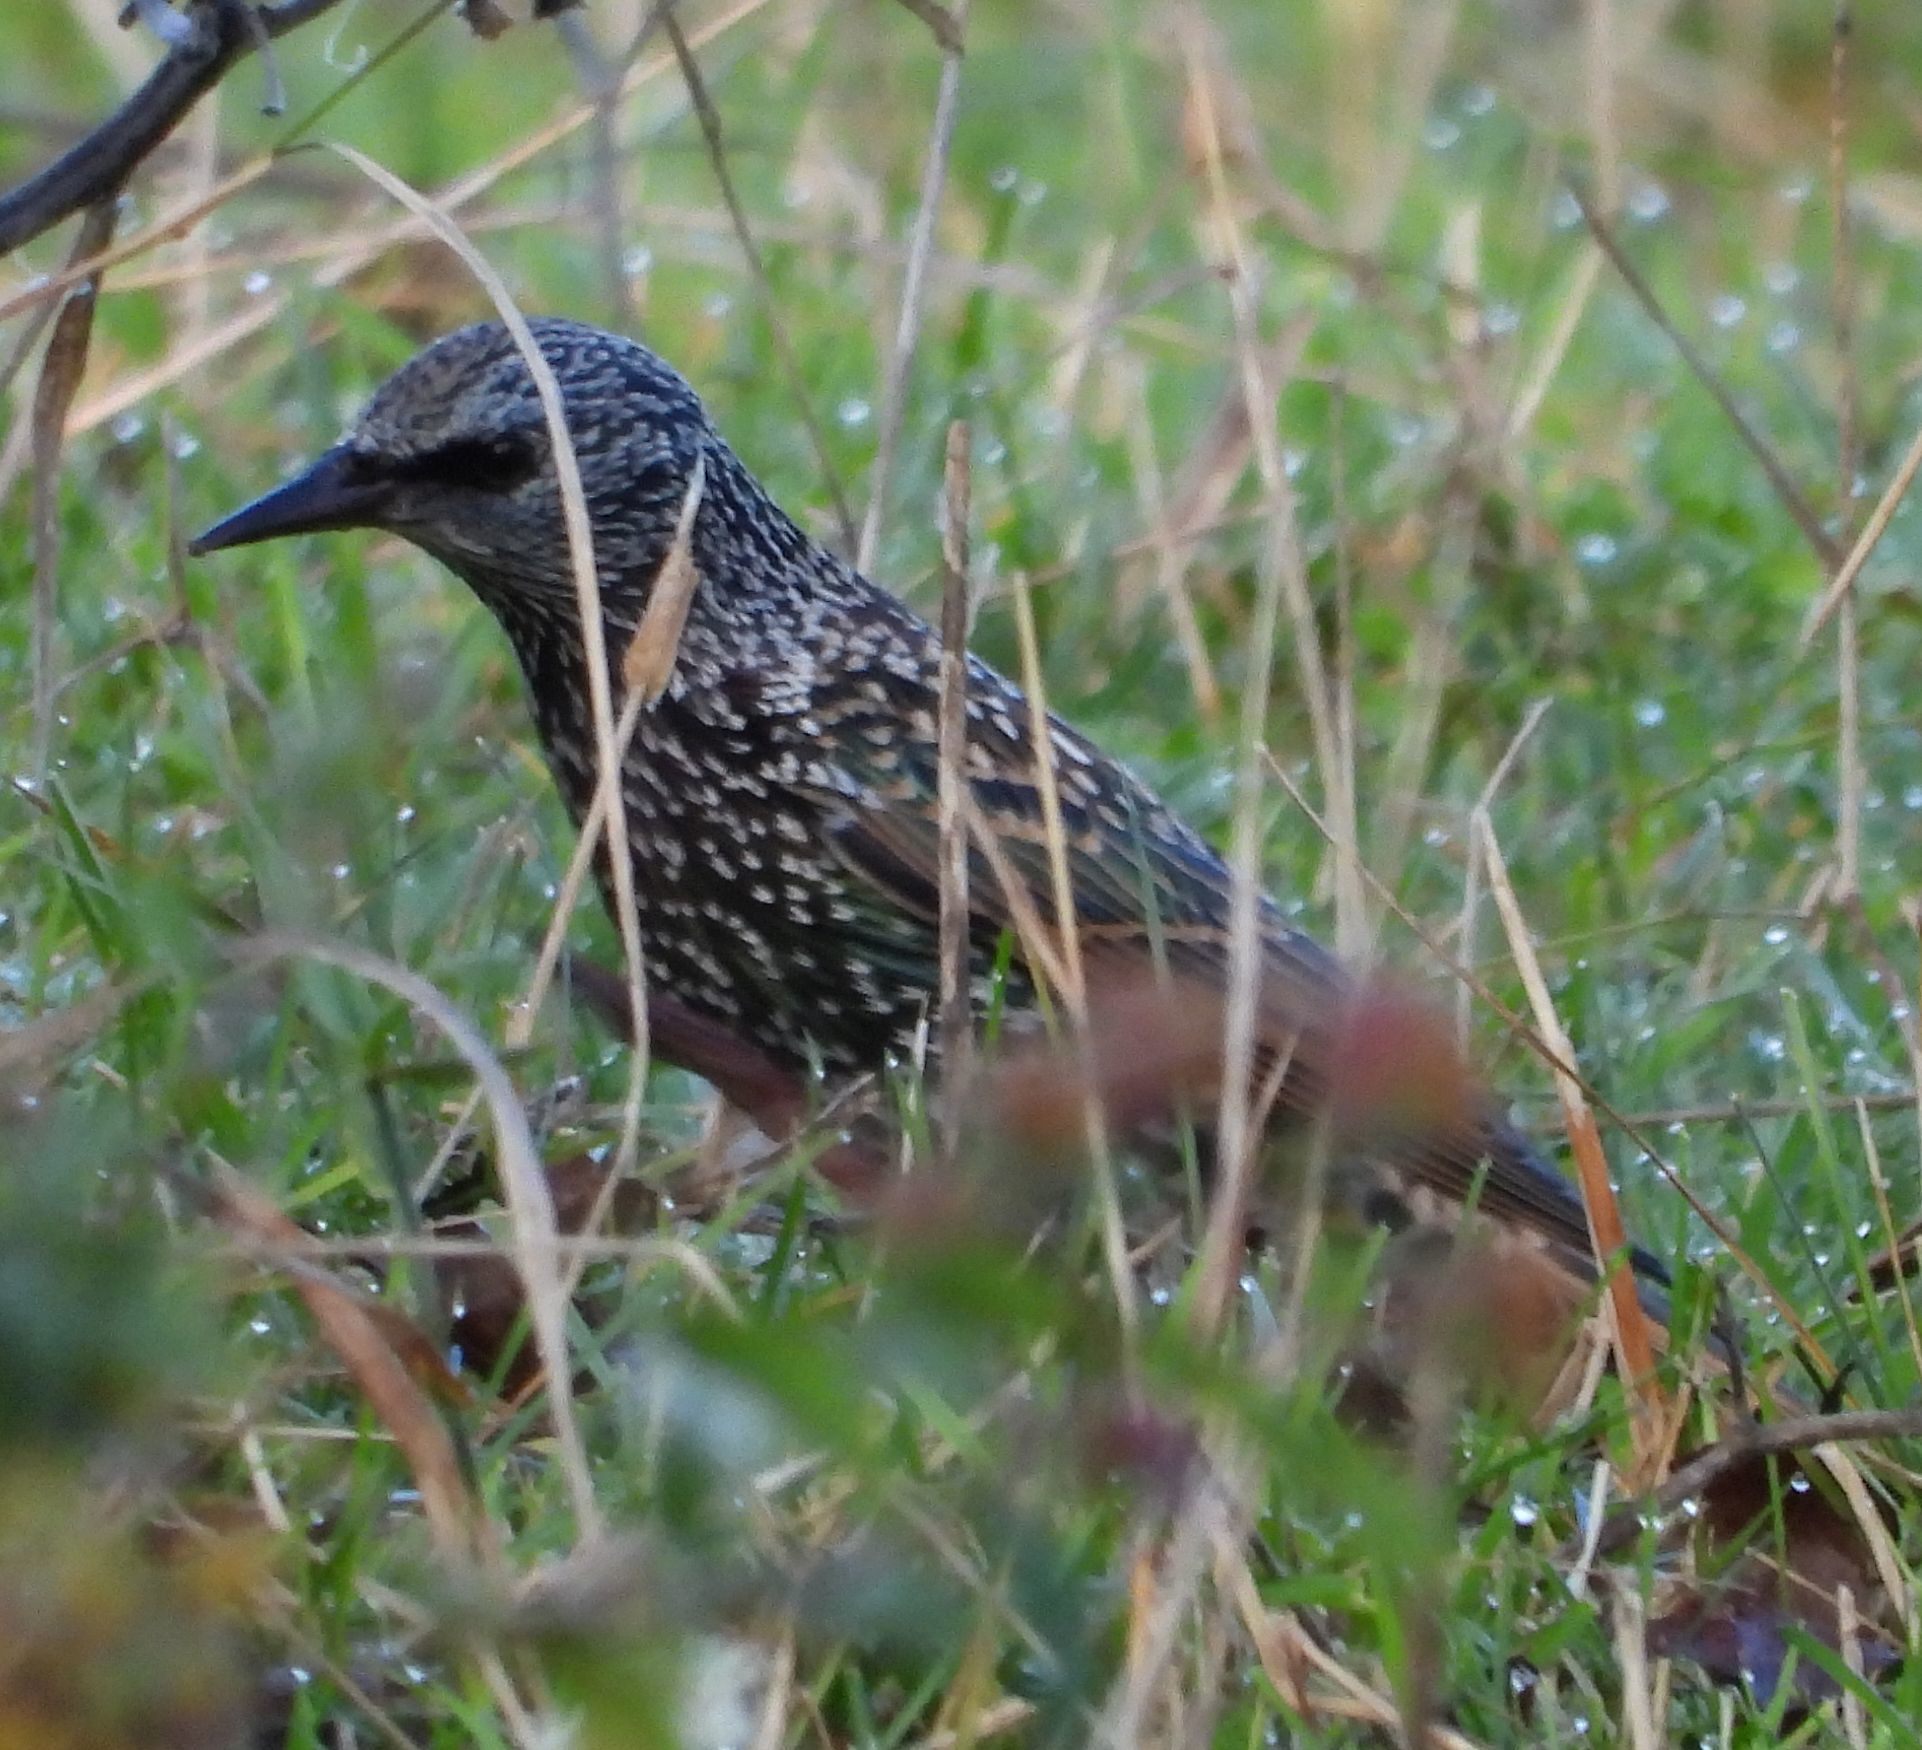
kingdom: Animalia
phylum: Chordata
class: Aves
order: Passeriformes
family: Sturnidae
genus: Sturnus
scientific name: Sturnus vulgaris
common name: Common starling
